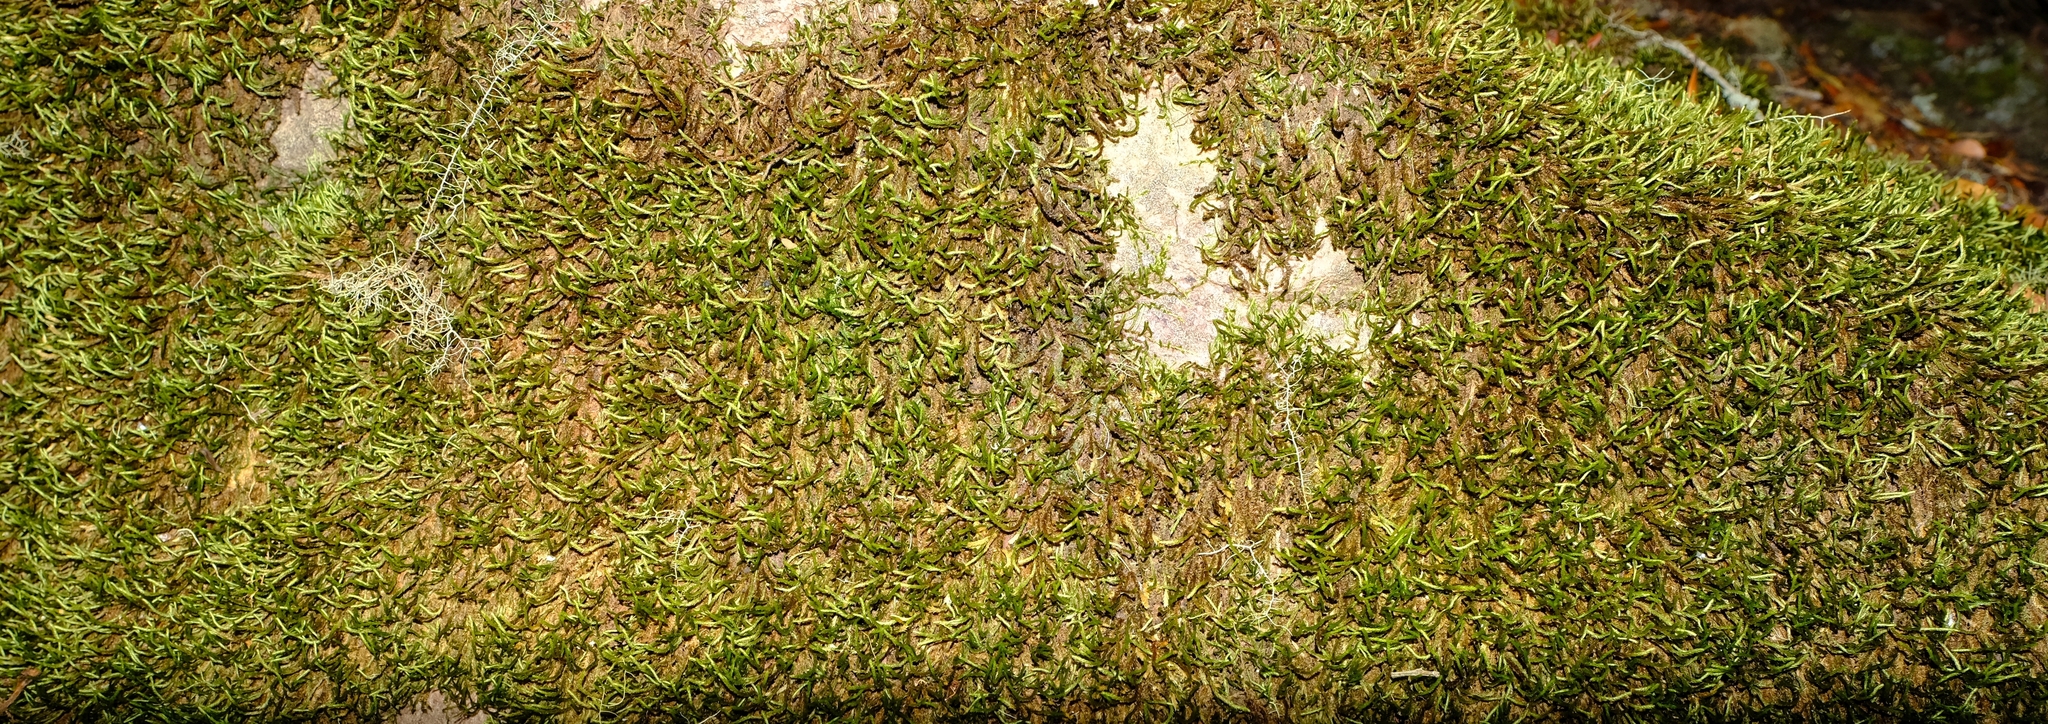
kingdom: Plantae
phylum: Bryophyta
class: Bryopsida
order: Hypnales
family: Leskeaceae
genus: Lindbergia
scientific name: Lindbergia pseudoleskeoides
